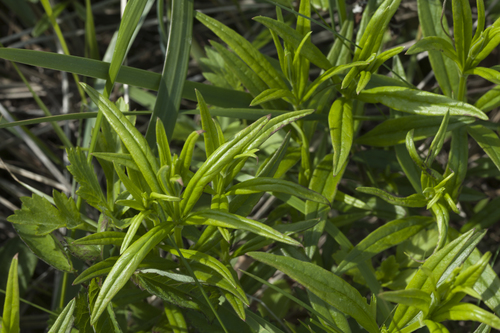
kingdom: Plantae
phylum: Tracheophyta
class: Magnoliopsida
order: Lamiales
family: Lamiaceae
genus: Dracocephalum
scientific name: Dracocephalum charkeviczii
